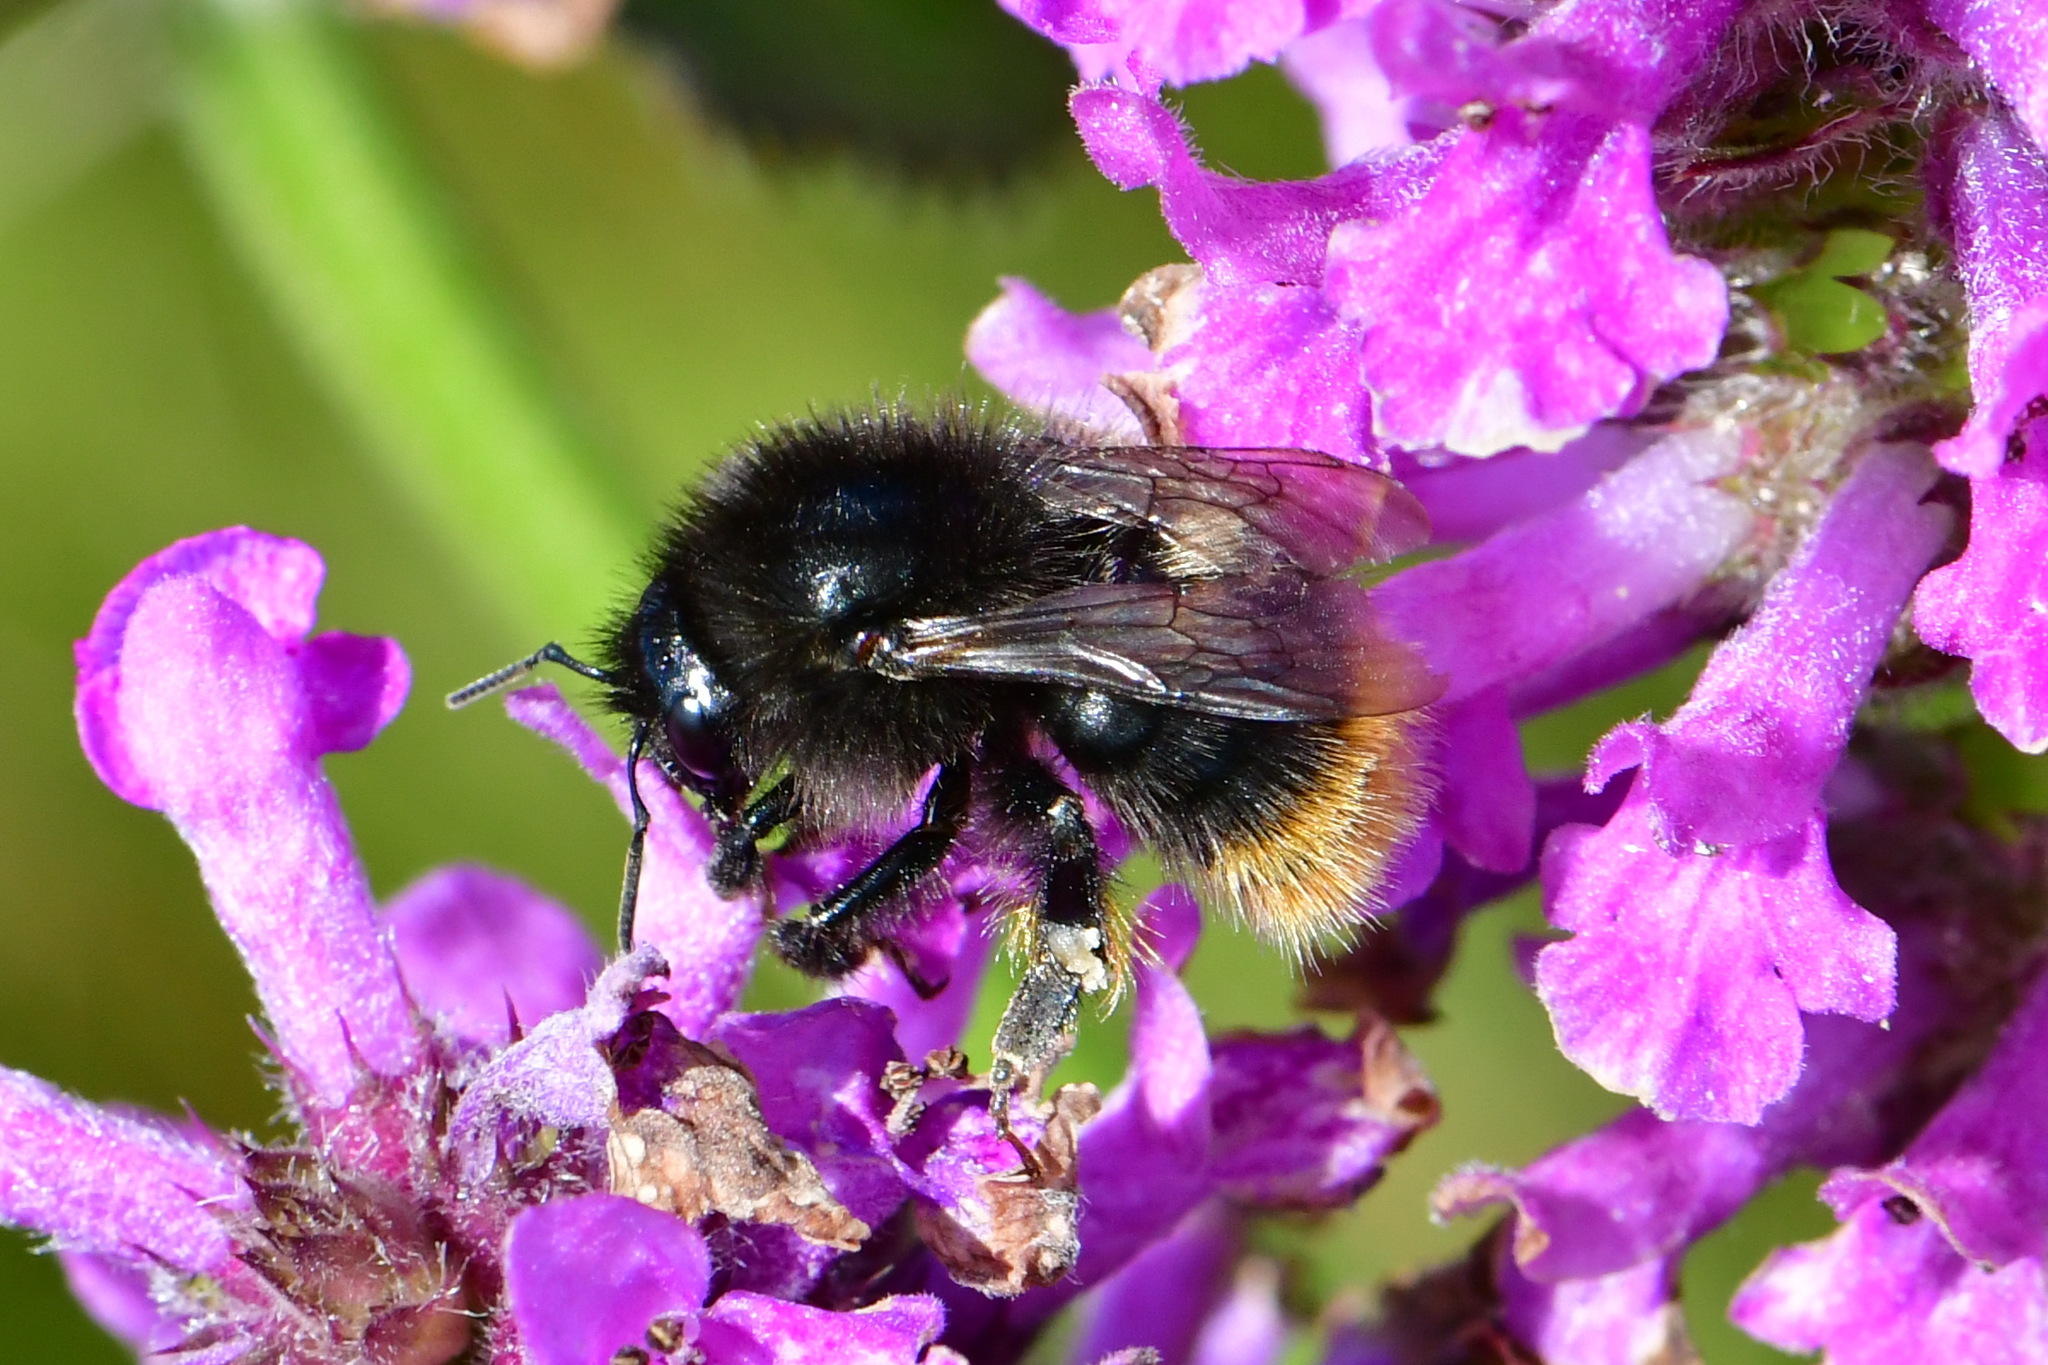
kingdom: Animalia
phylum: Arthropoda
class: Insecta
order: Hymenoptera
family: Apidae
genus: Bombus
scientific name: Bombus ruderarius
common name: Red-shanked carder-bee
